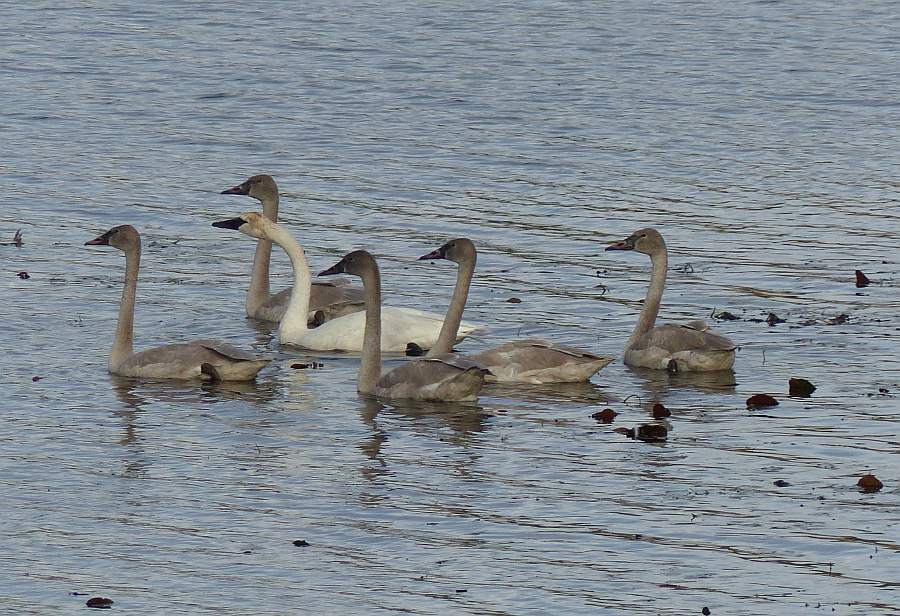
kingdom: Animalia
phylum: Chordata
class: Aves
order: Anseriformes
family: Anatidae
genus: Cygnus
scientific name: Cygnus buccinator
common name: Trumpeter swan
